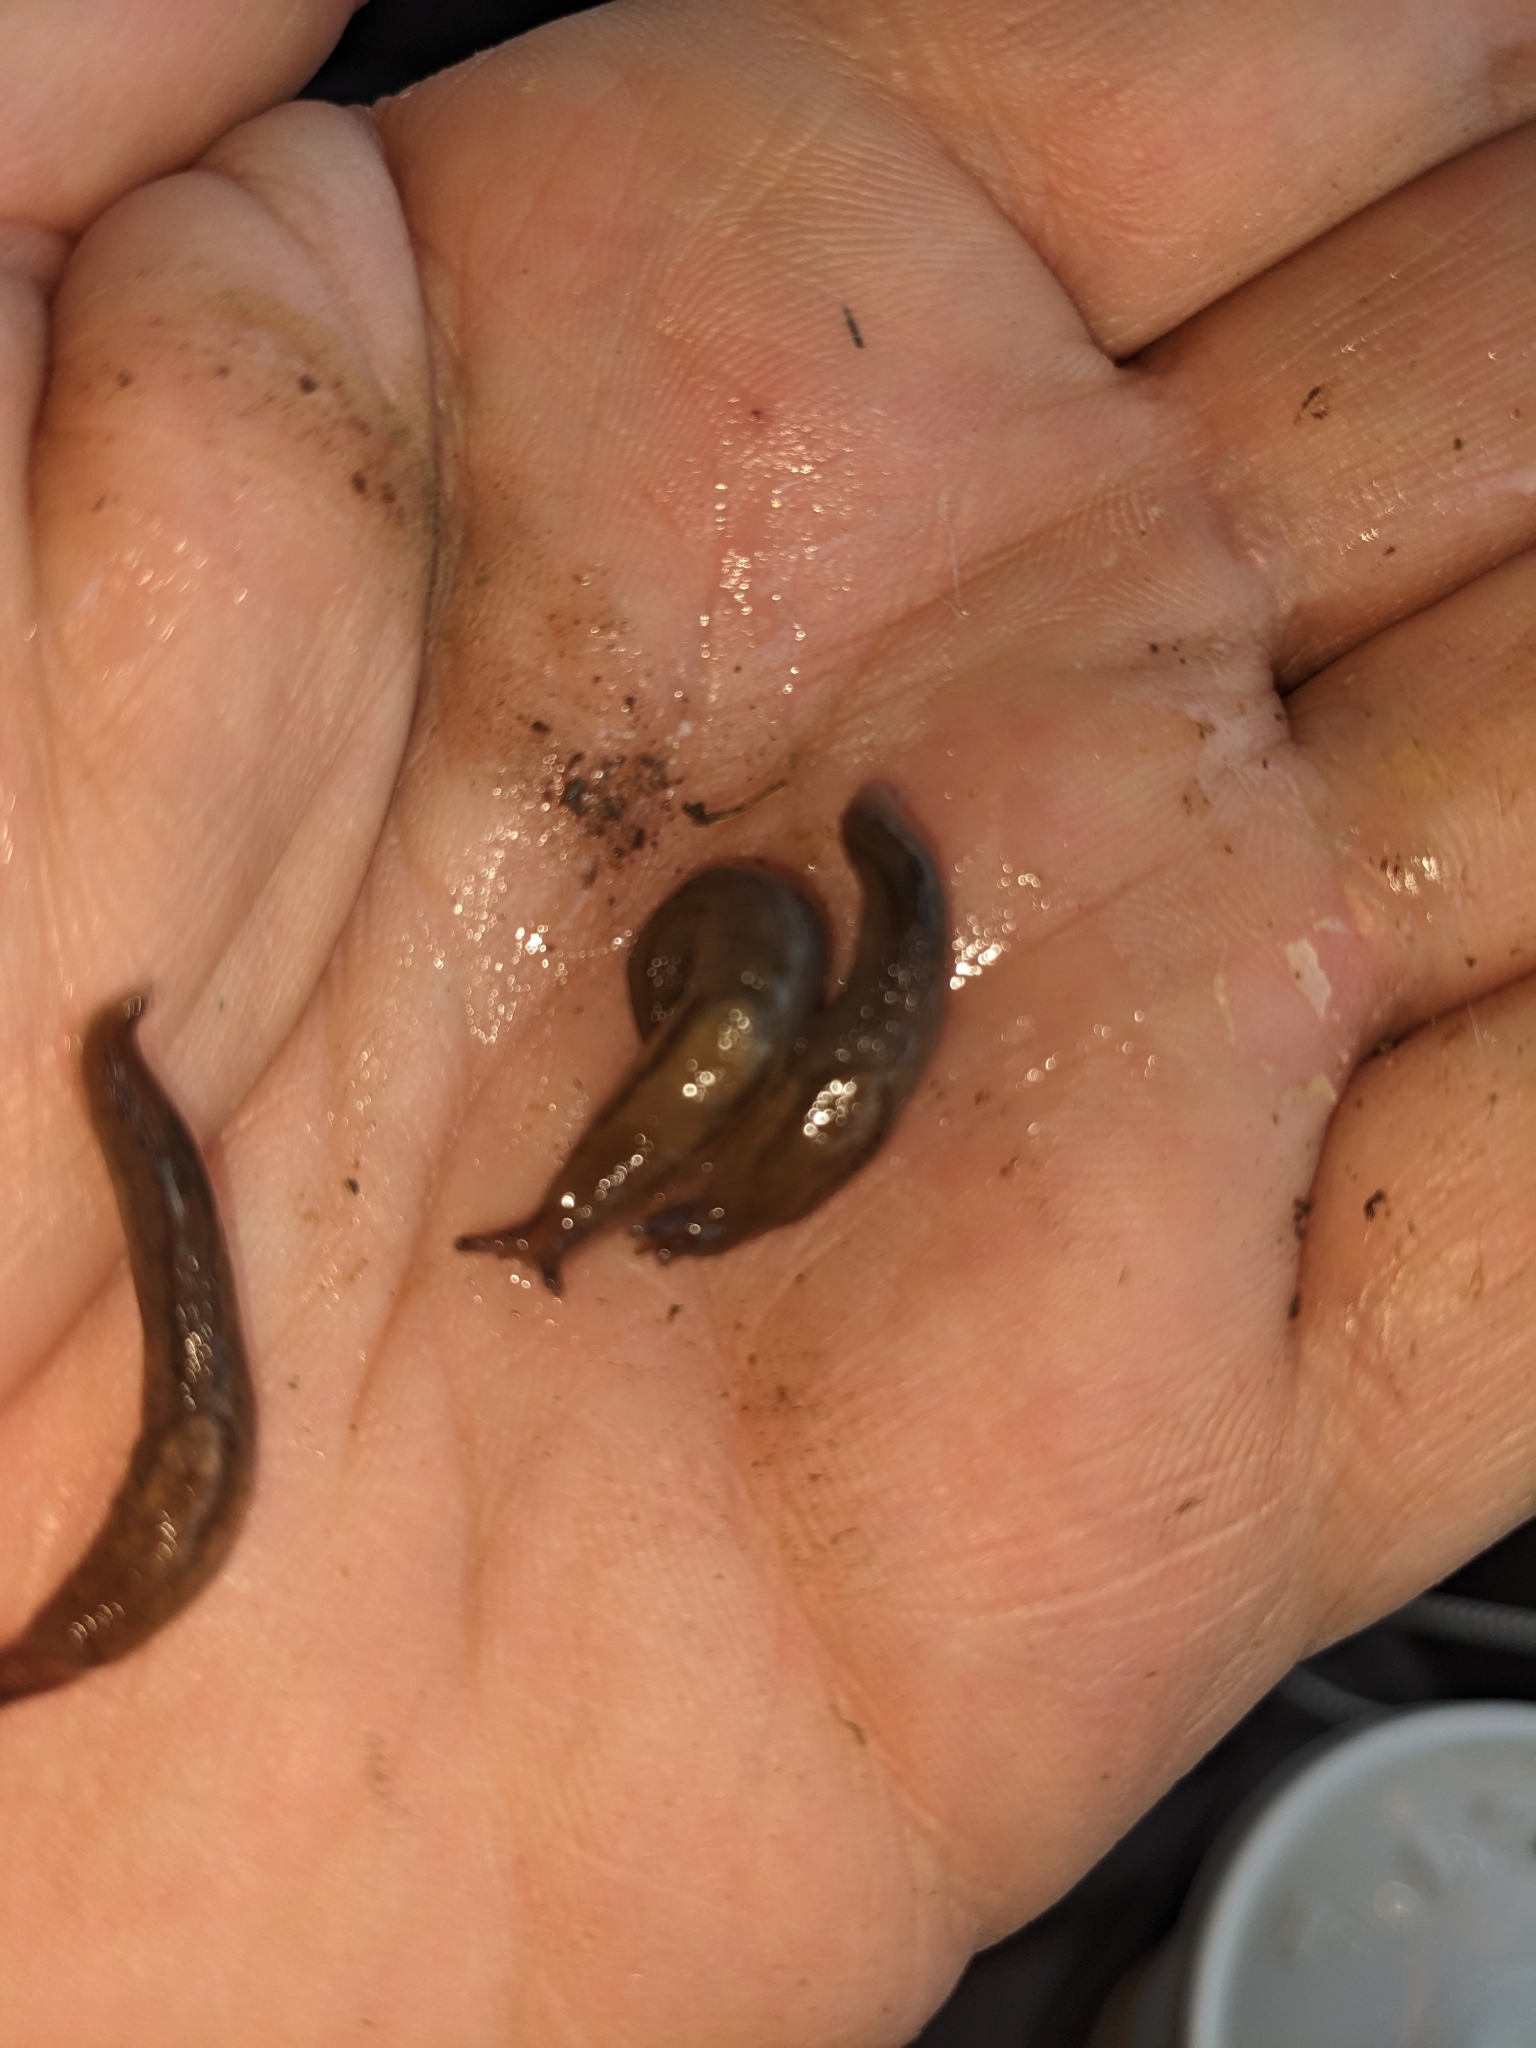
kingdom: Animalia
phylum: Mollusca
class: Gastropoda
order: Stylommatophora
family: Limacidae
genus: Ambigolimax
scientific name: Ambigolimax
